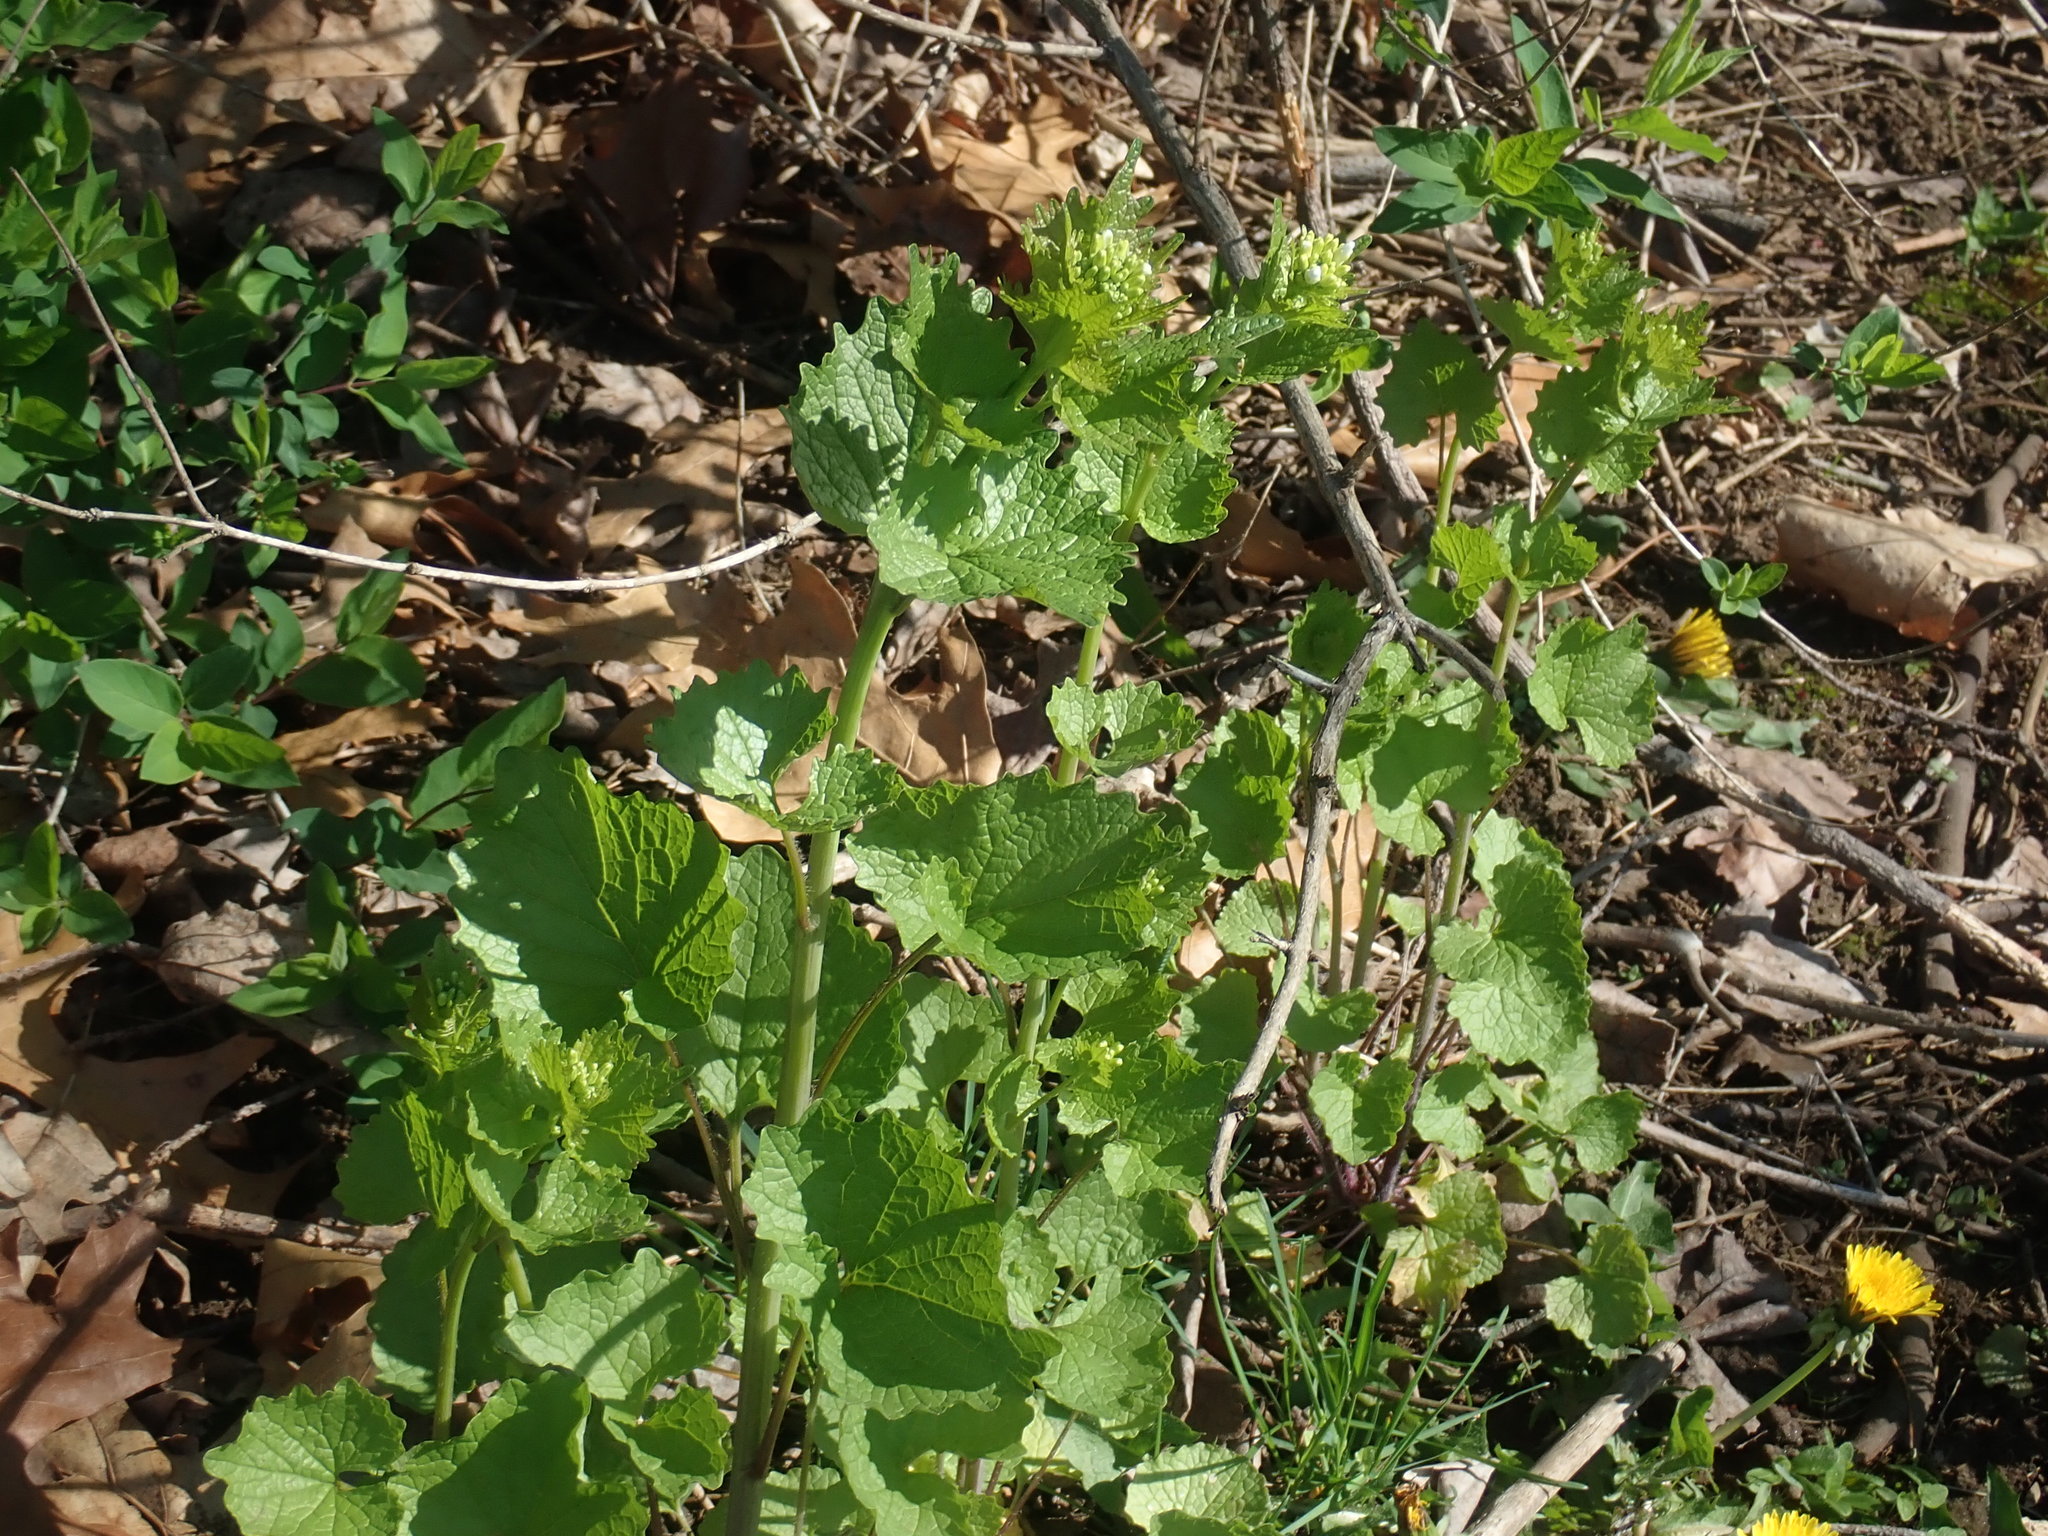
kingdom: Plantae
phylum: Tracheophyta
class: Magnoliopsida
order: Brassicales
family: Brassicaceae
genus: Alliaria
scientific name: Alliaria petiolata
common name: Garlic mustard
